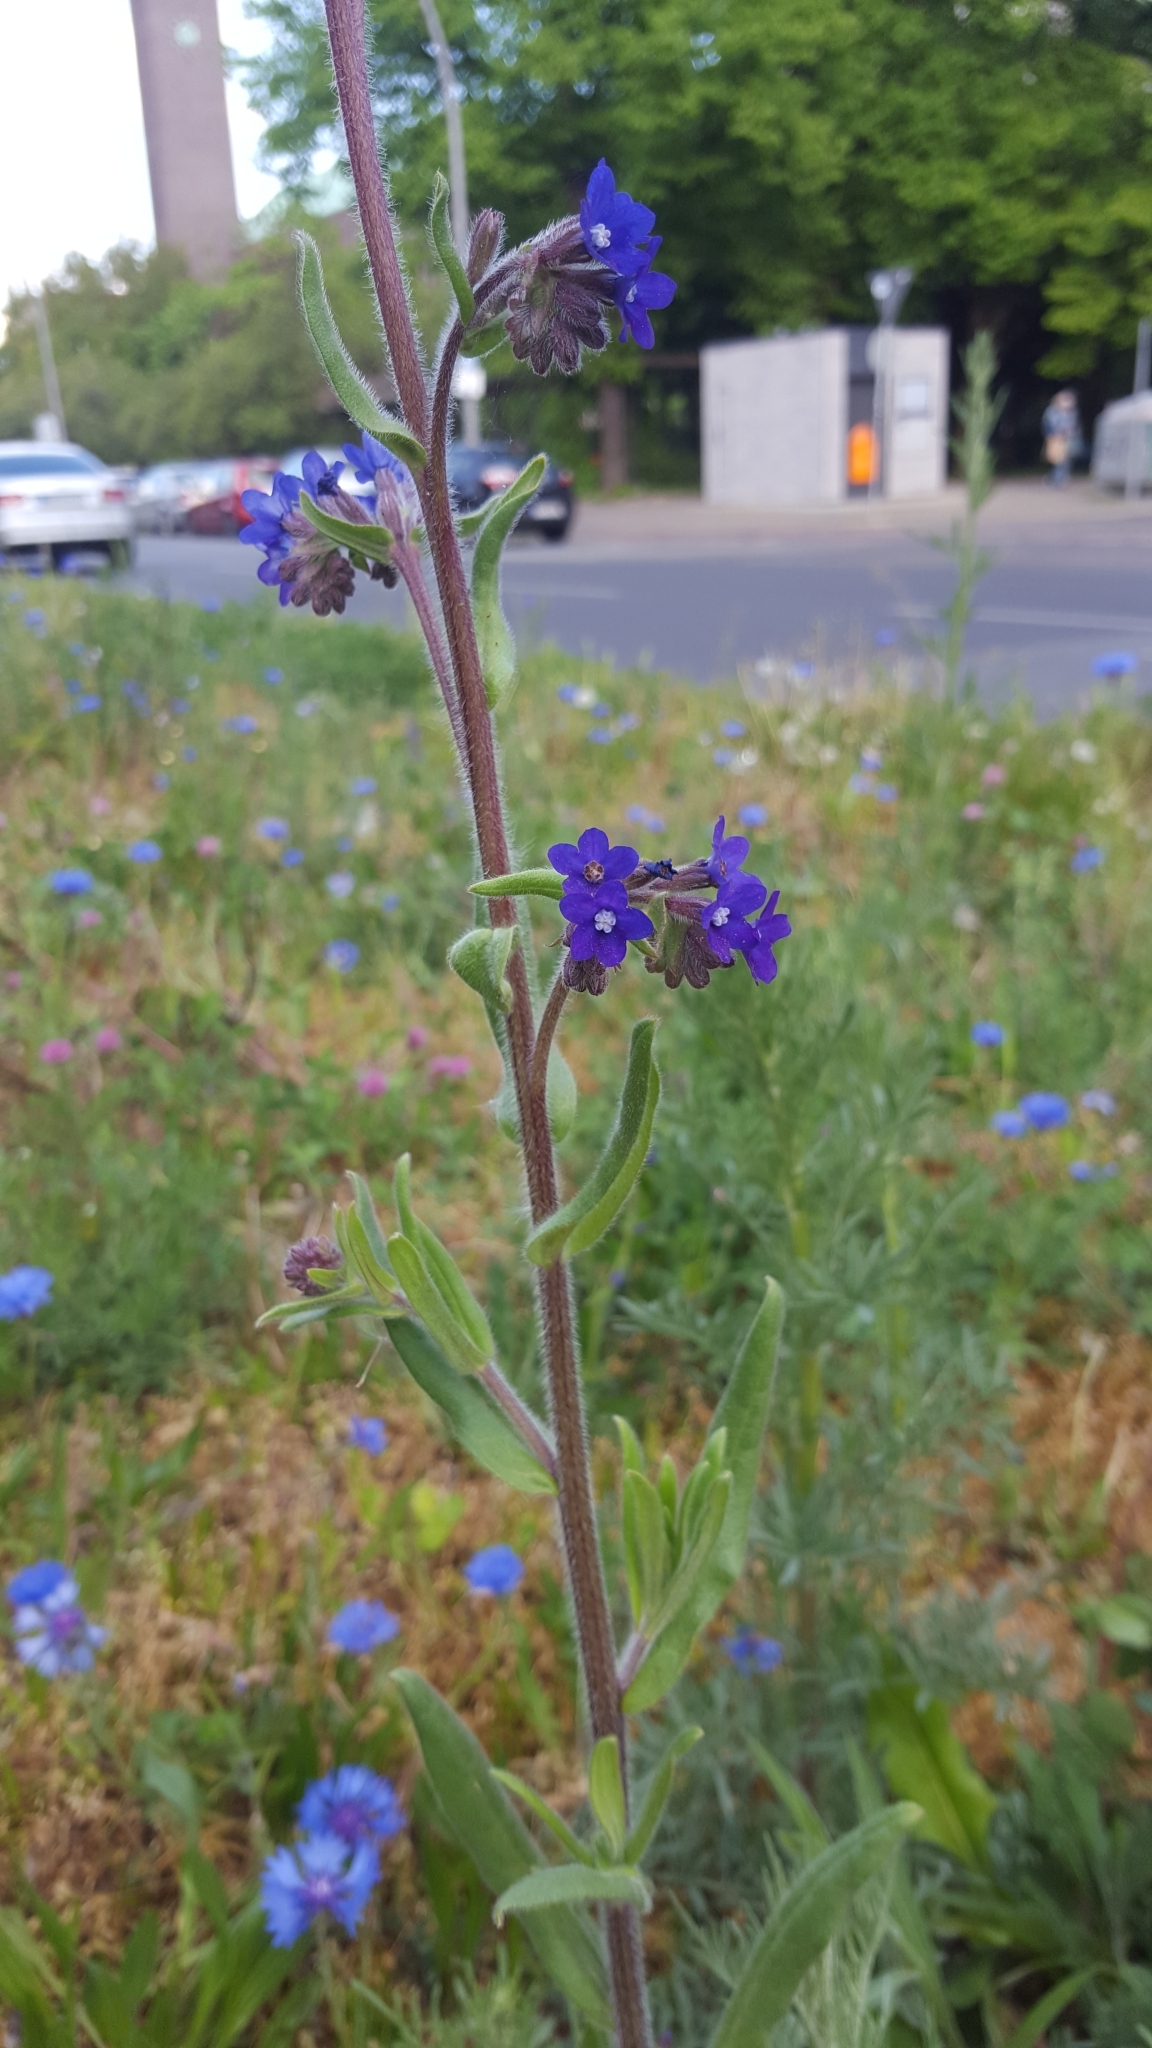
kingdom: Plantae
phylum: Tracheophyta
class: Magnoliopsida
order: Boraginales
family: Boraginaceae
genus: Anchusa
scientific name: Anchusa officinalis
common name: Alkanet
